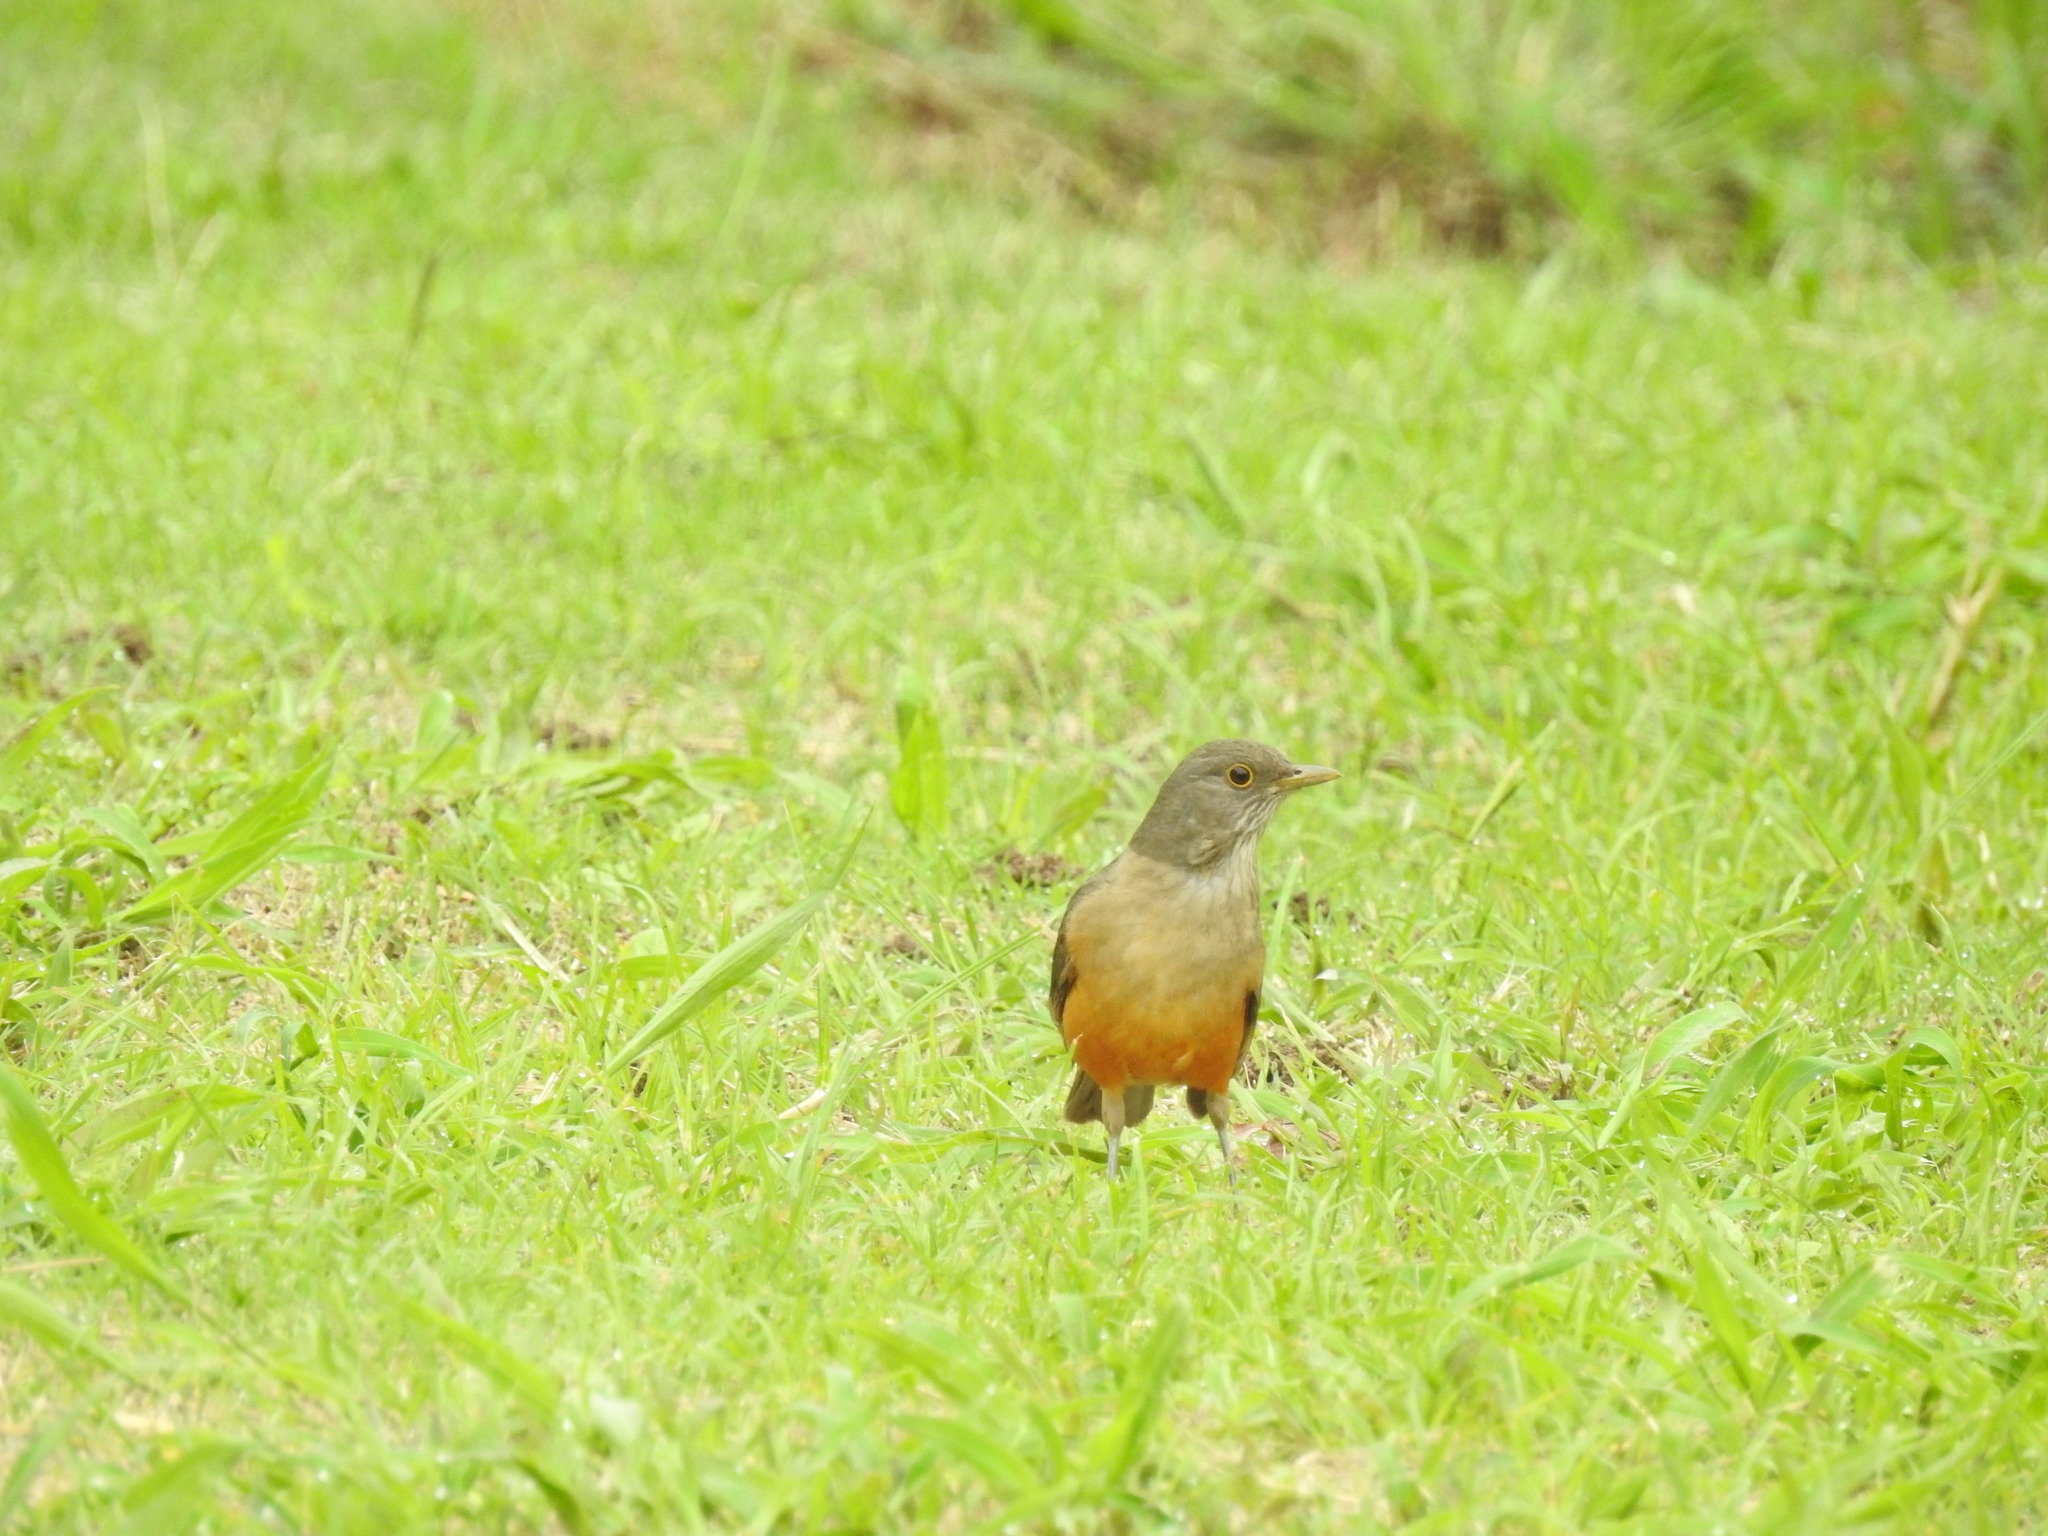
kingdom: Animalia
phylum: Chordata
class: Aves
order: Passeriformes
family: Turdidae
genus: Turdus
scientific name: Turdus rufiventris
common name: Rufous-bellied thrush
